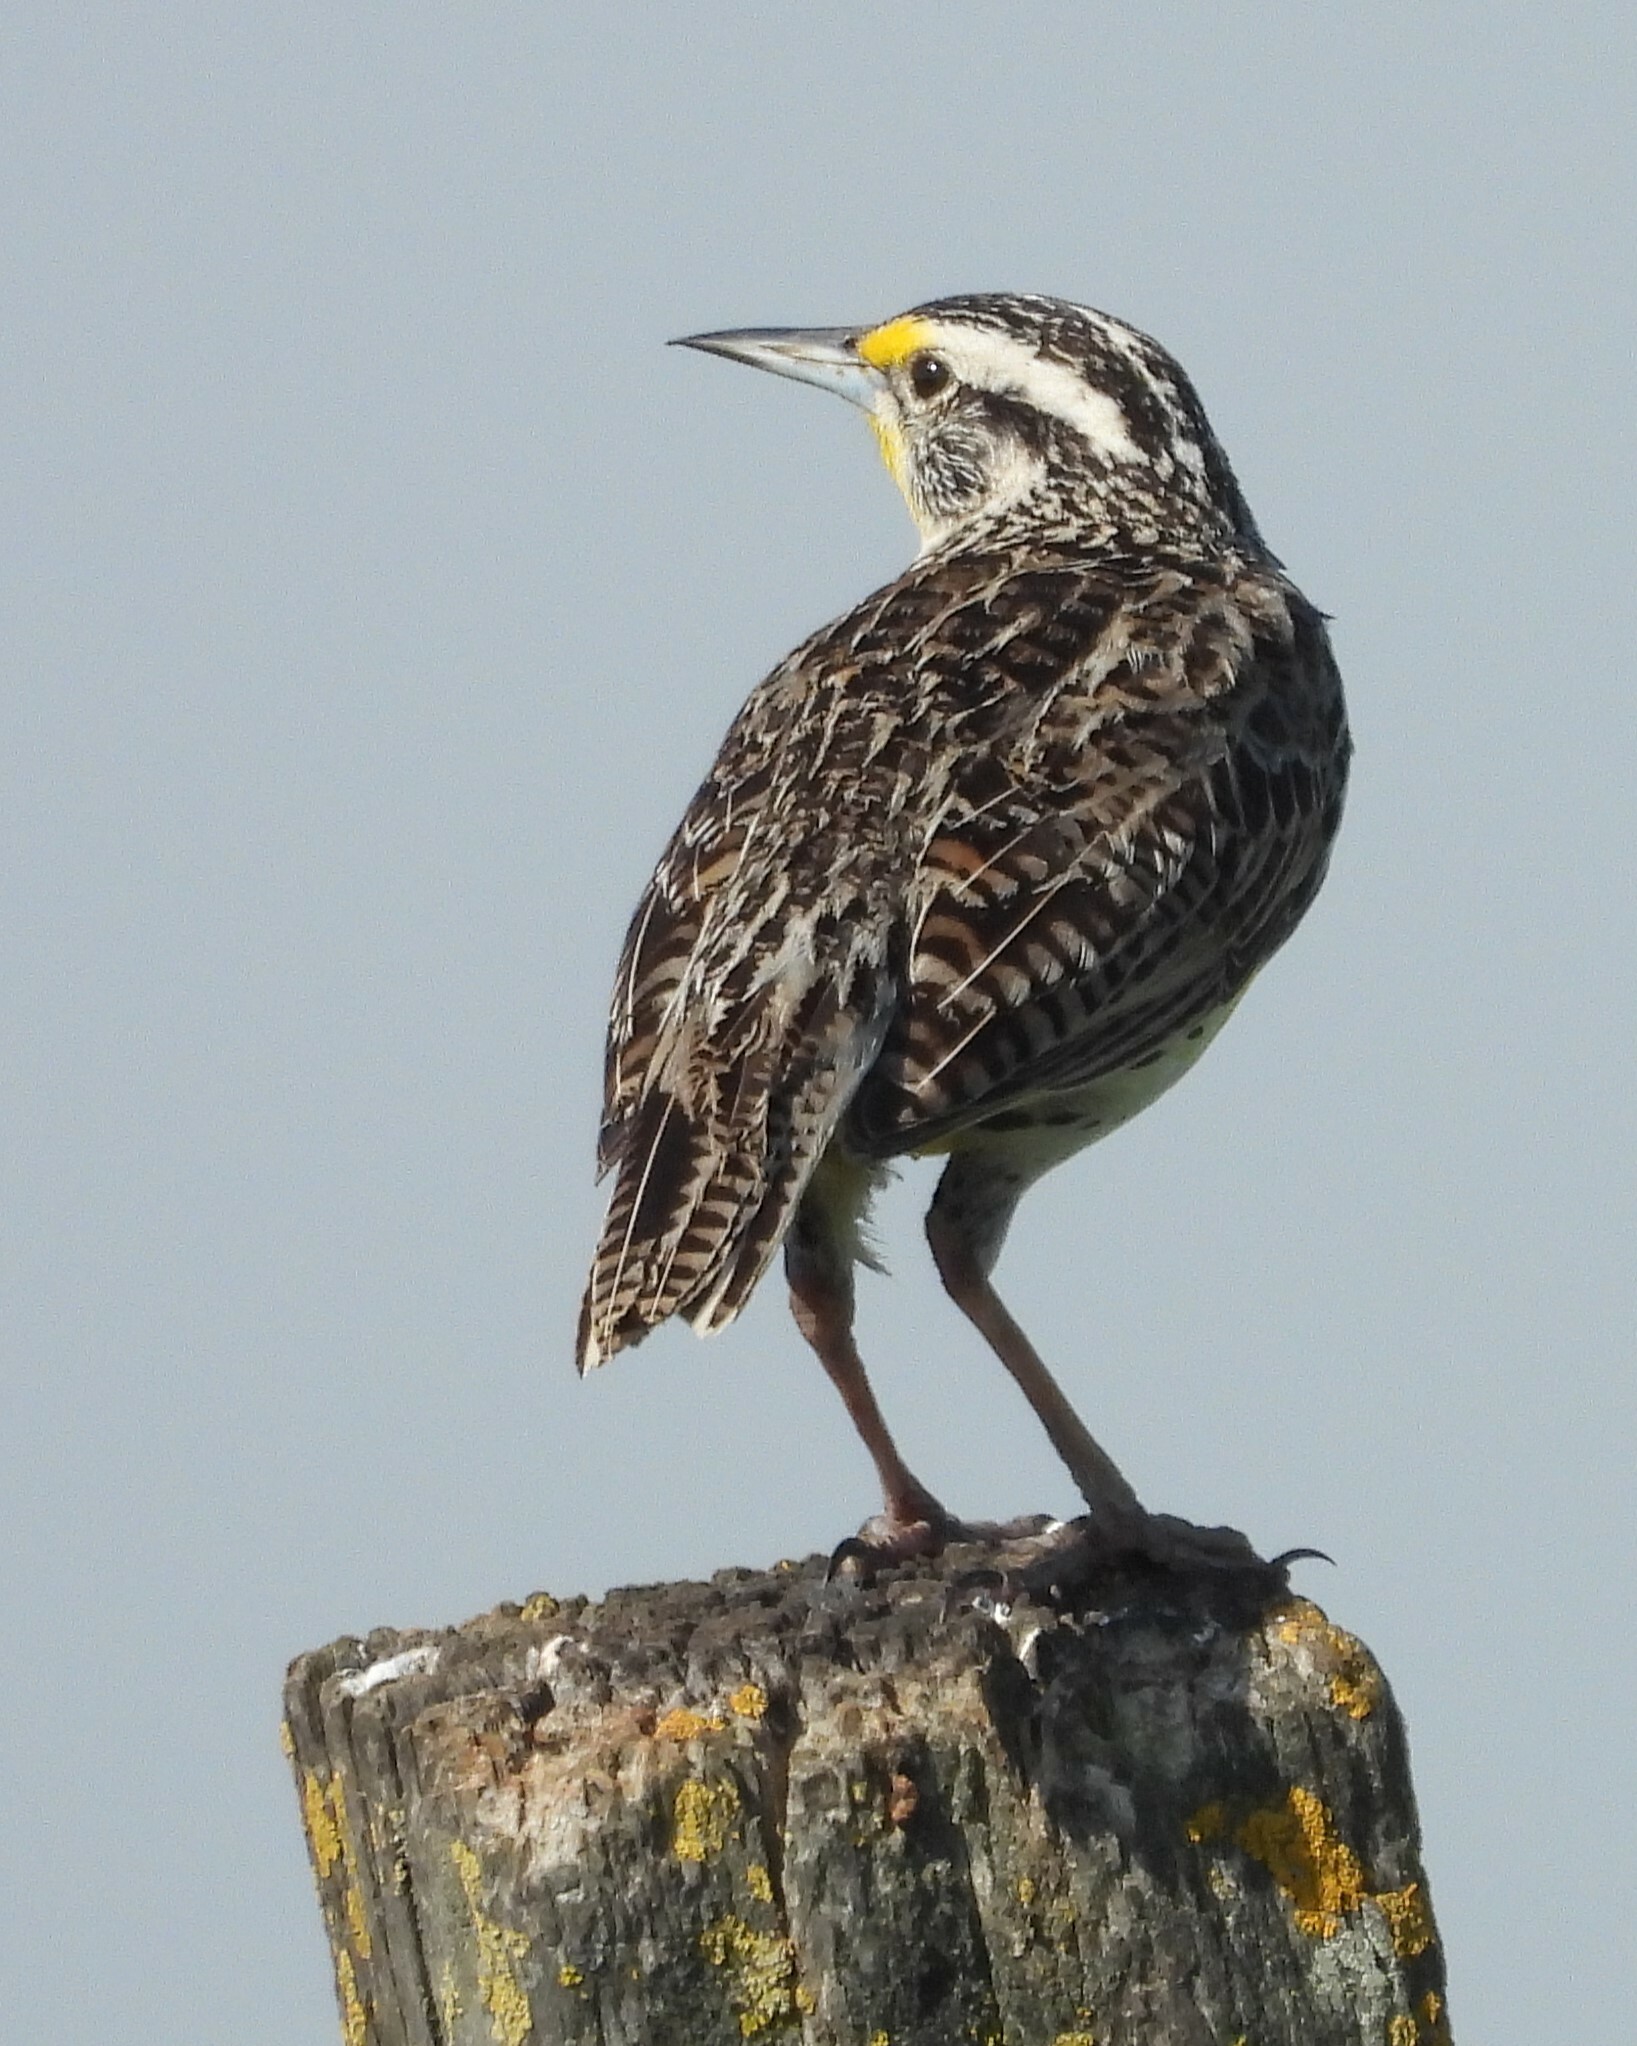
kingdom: Animalia
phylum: Chordata
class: Aves
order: Passeriformes
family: Icteridae
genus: Sturnella
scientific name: Sturnella neglecta
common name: Western meadowlark
